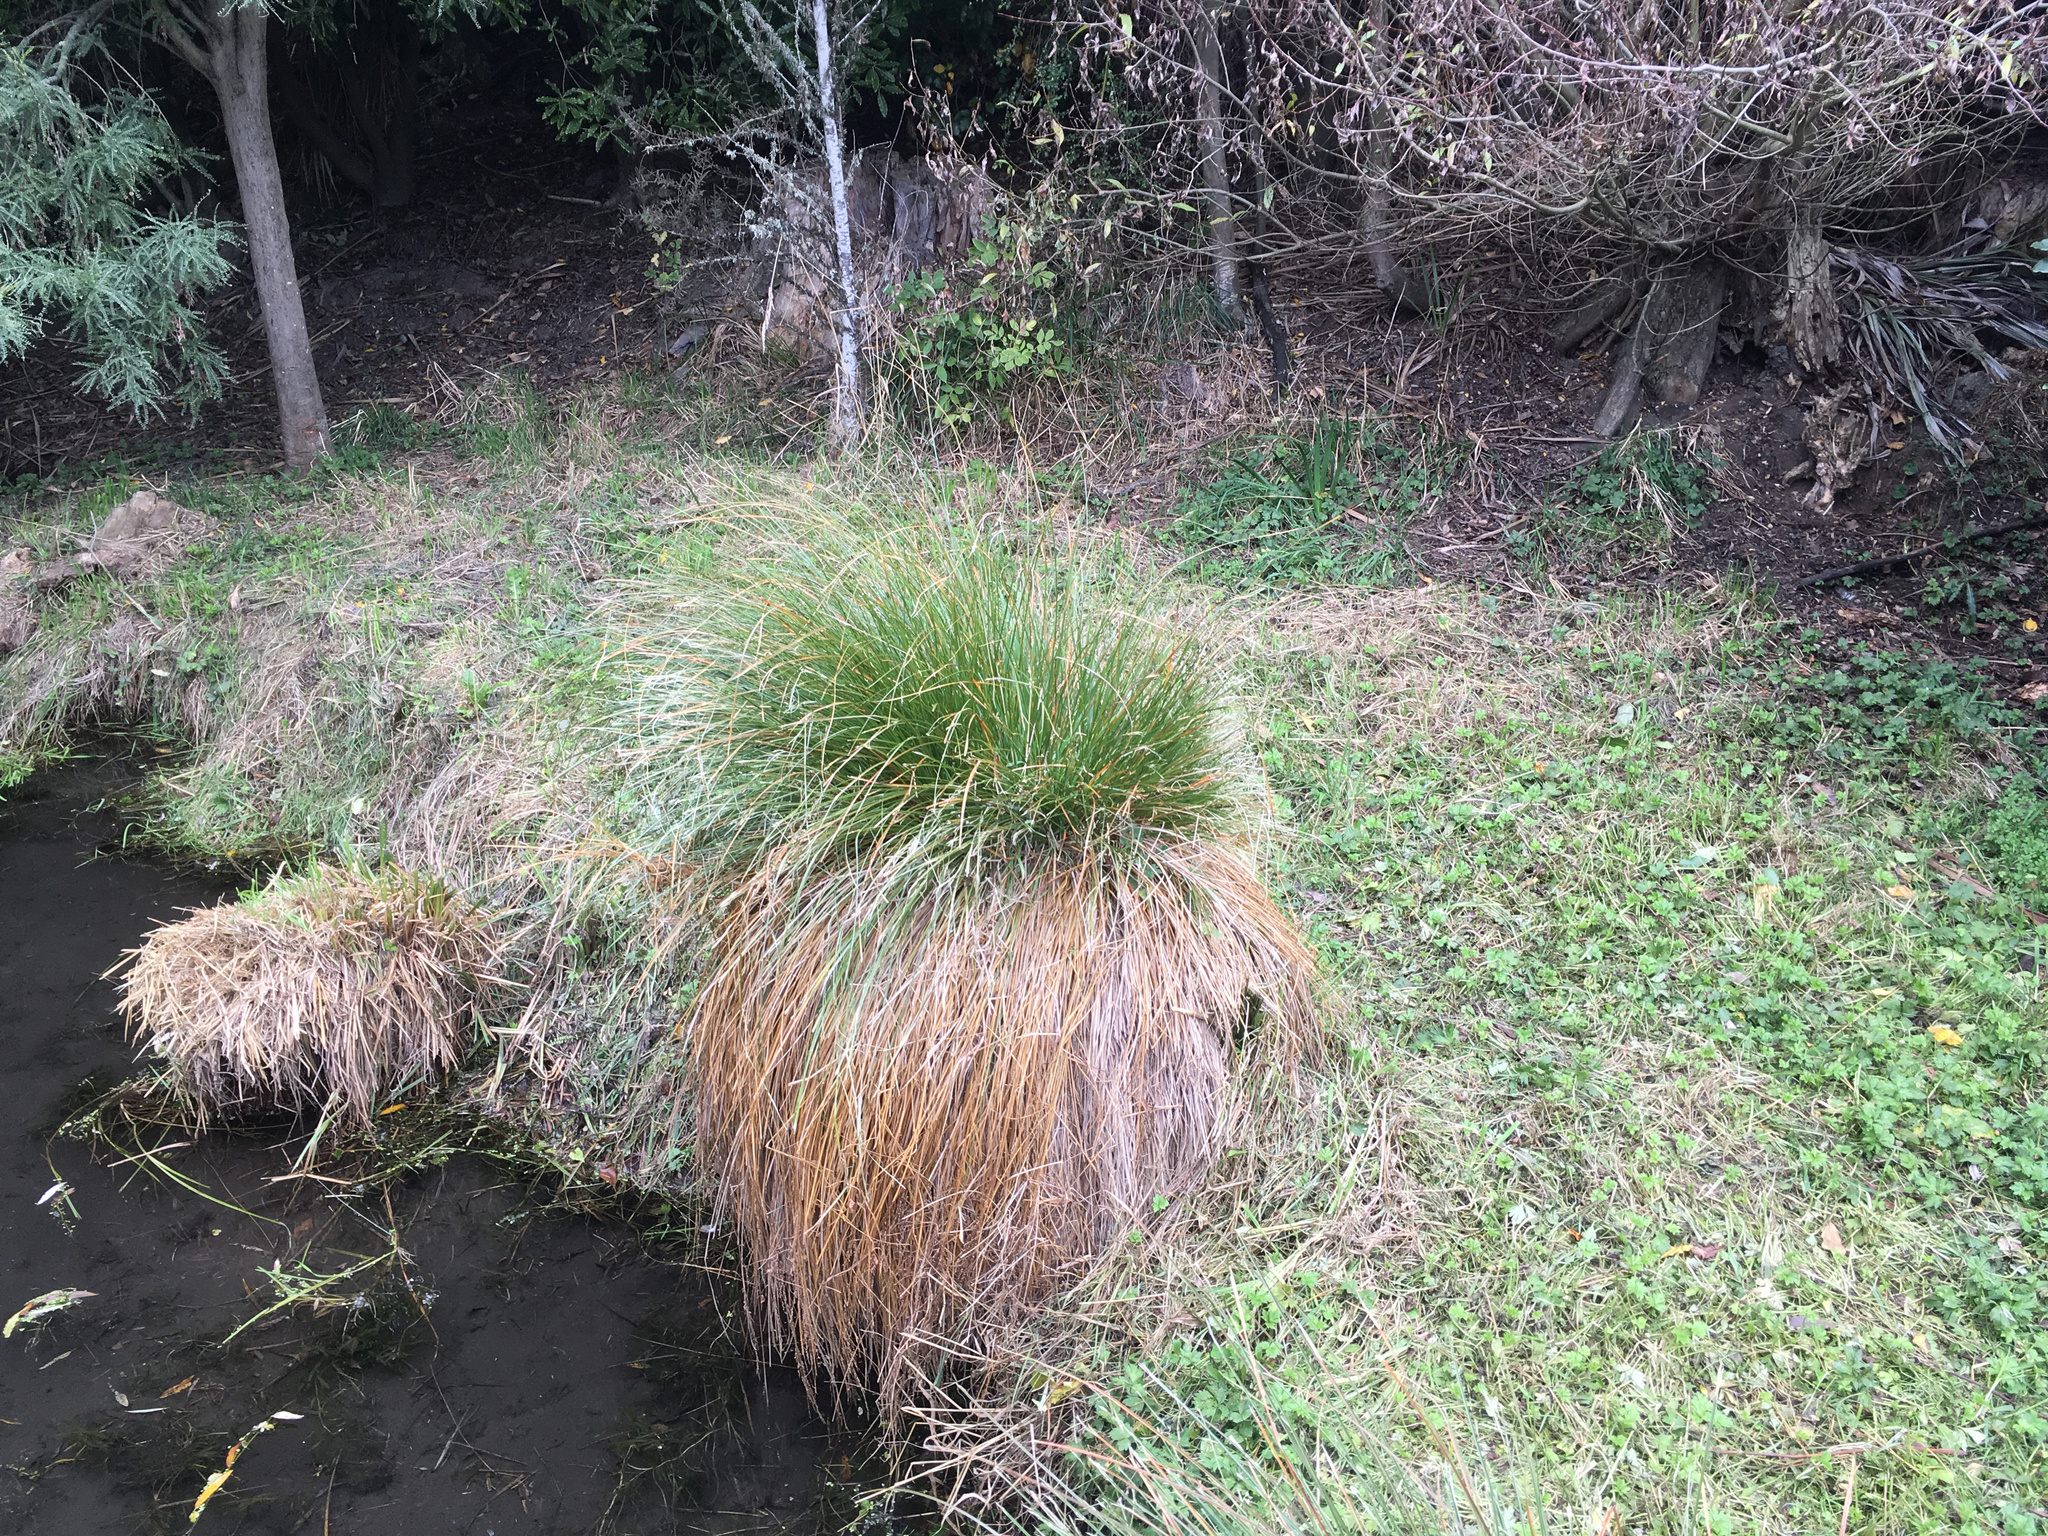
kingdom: Plantae
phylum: Tracheophyta
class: Liliopsida
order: Poales
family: Cyperaceae
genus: Carex
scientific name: Carex secta
